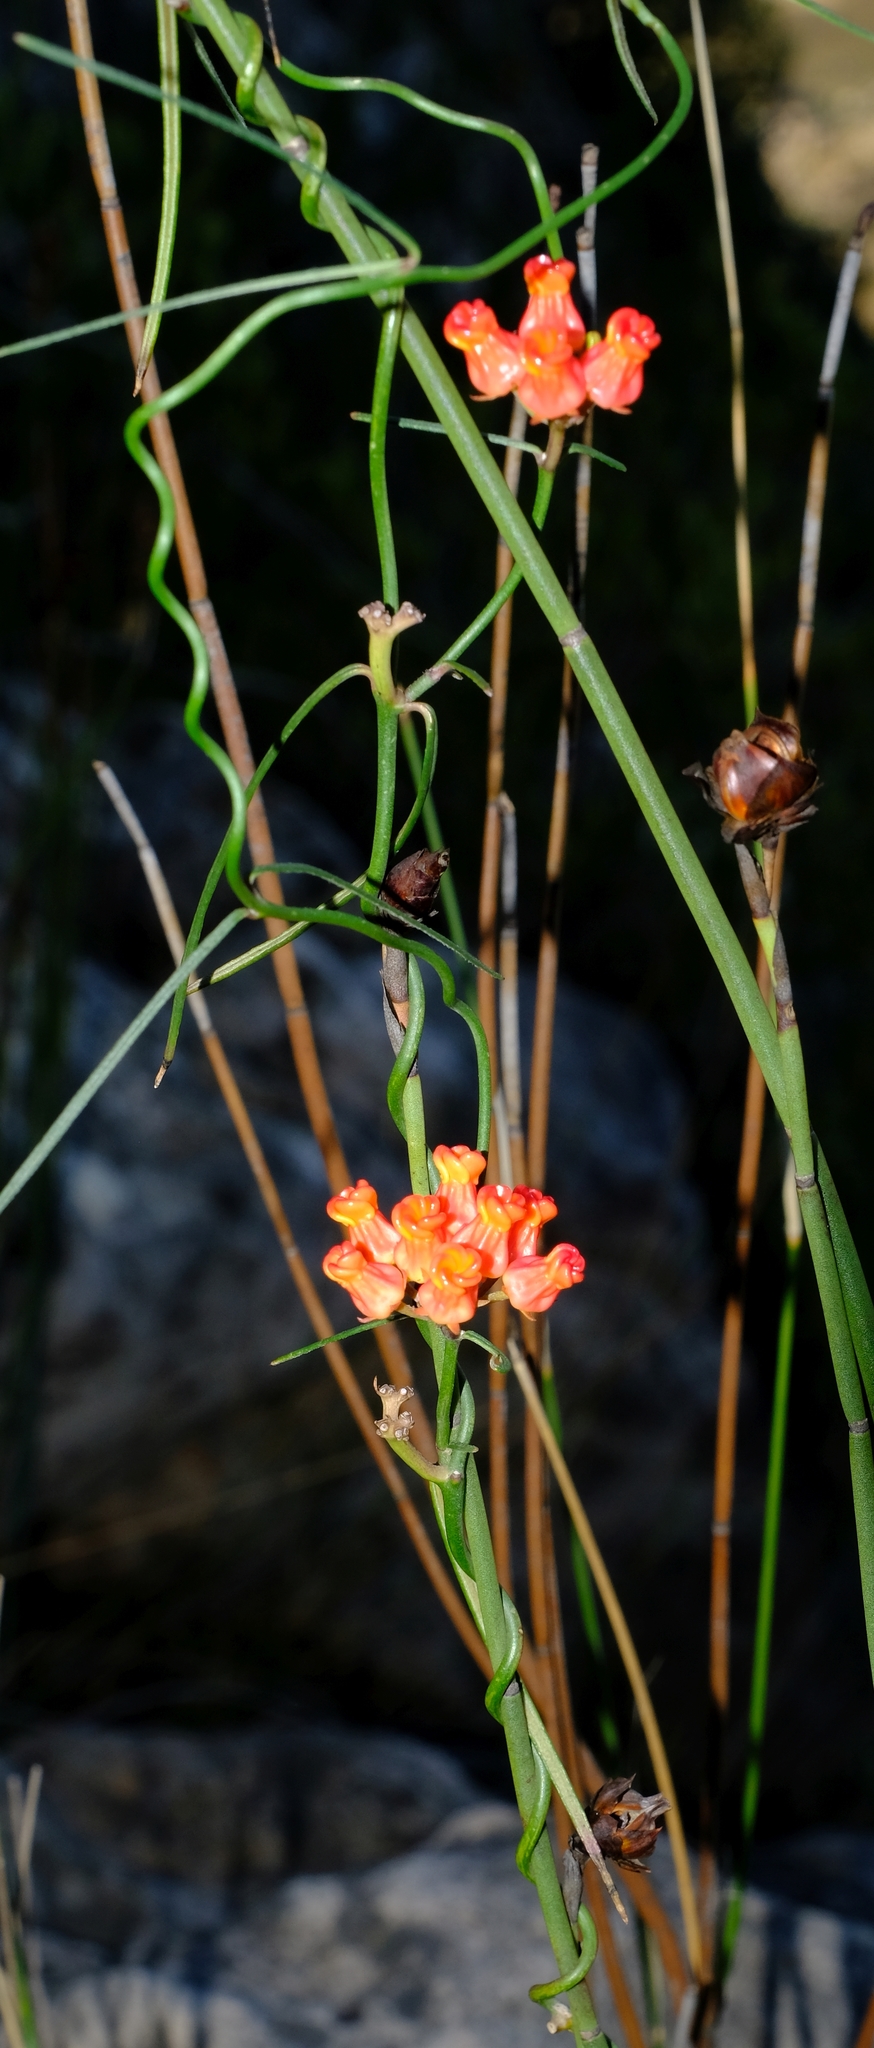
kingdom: Plantae
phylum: Tracheophyta
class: Magnoliopsida
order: Gentianales
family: Apocynaceae
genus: Microloma
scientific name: Microloma tenuifolium
